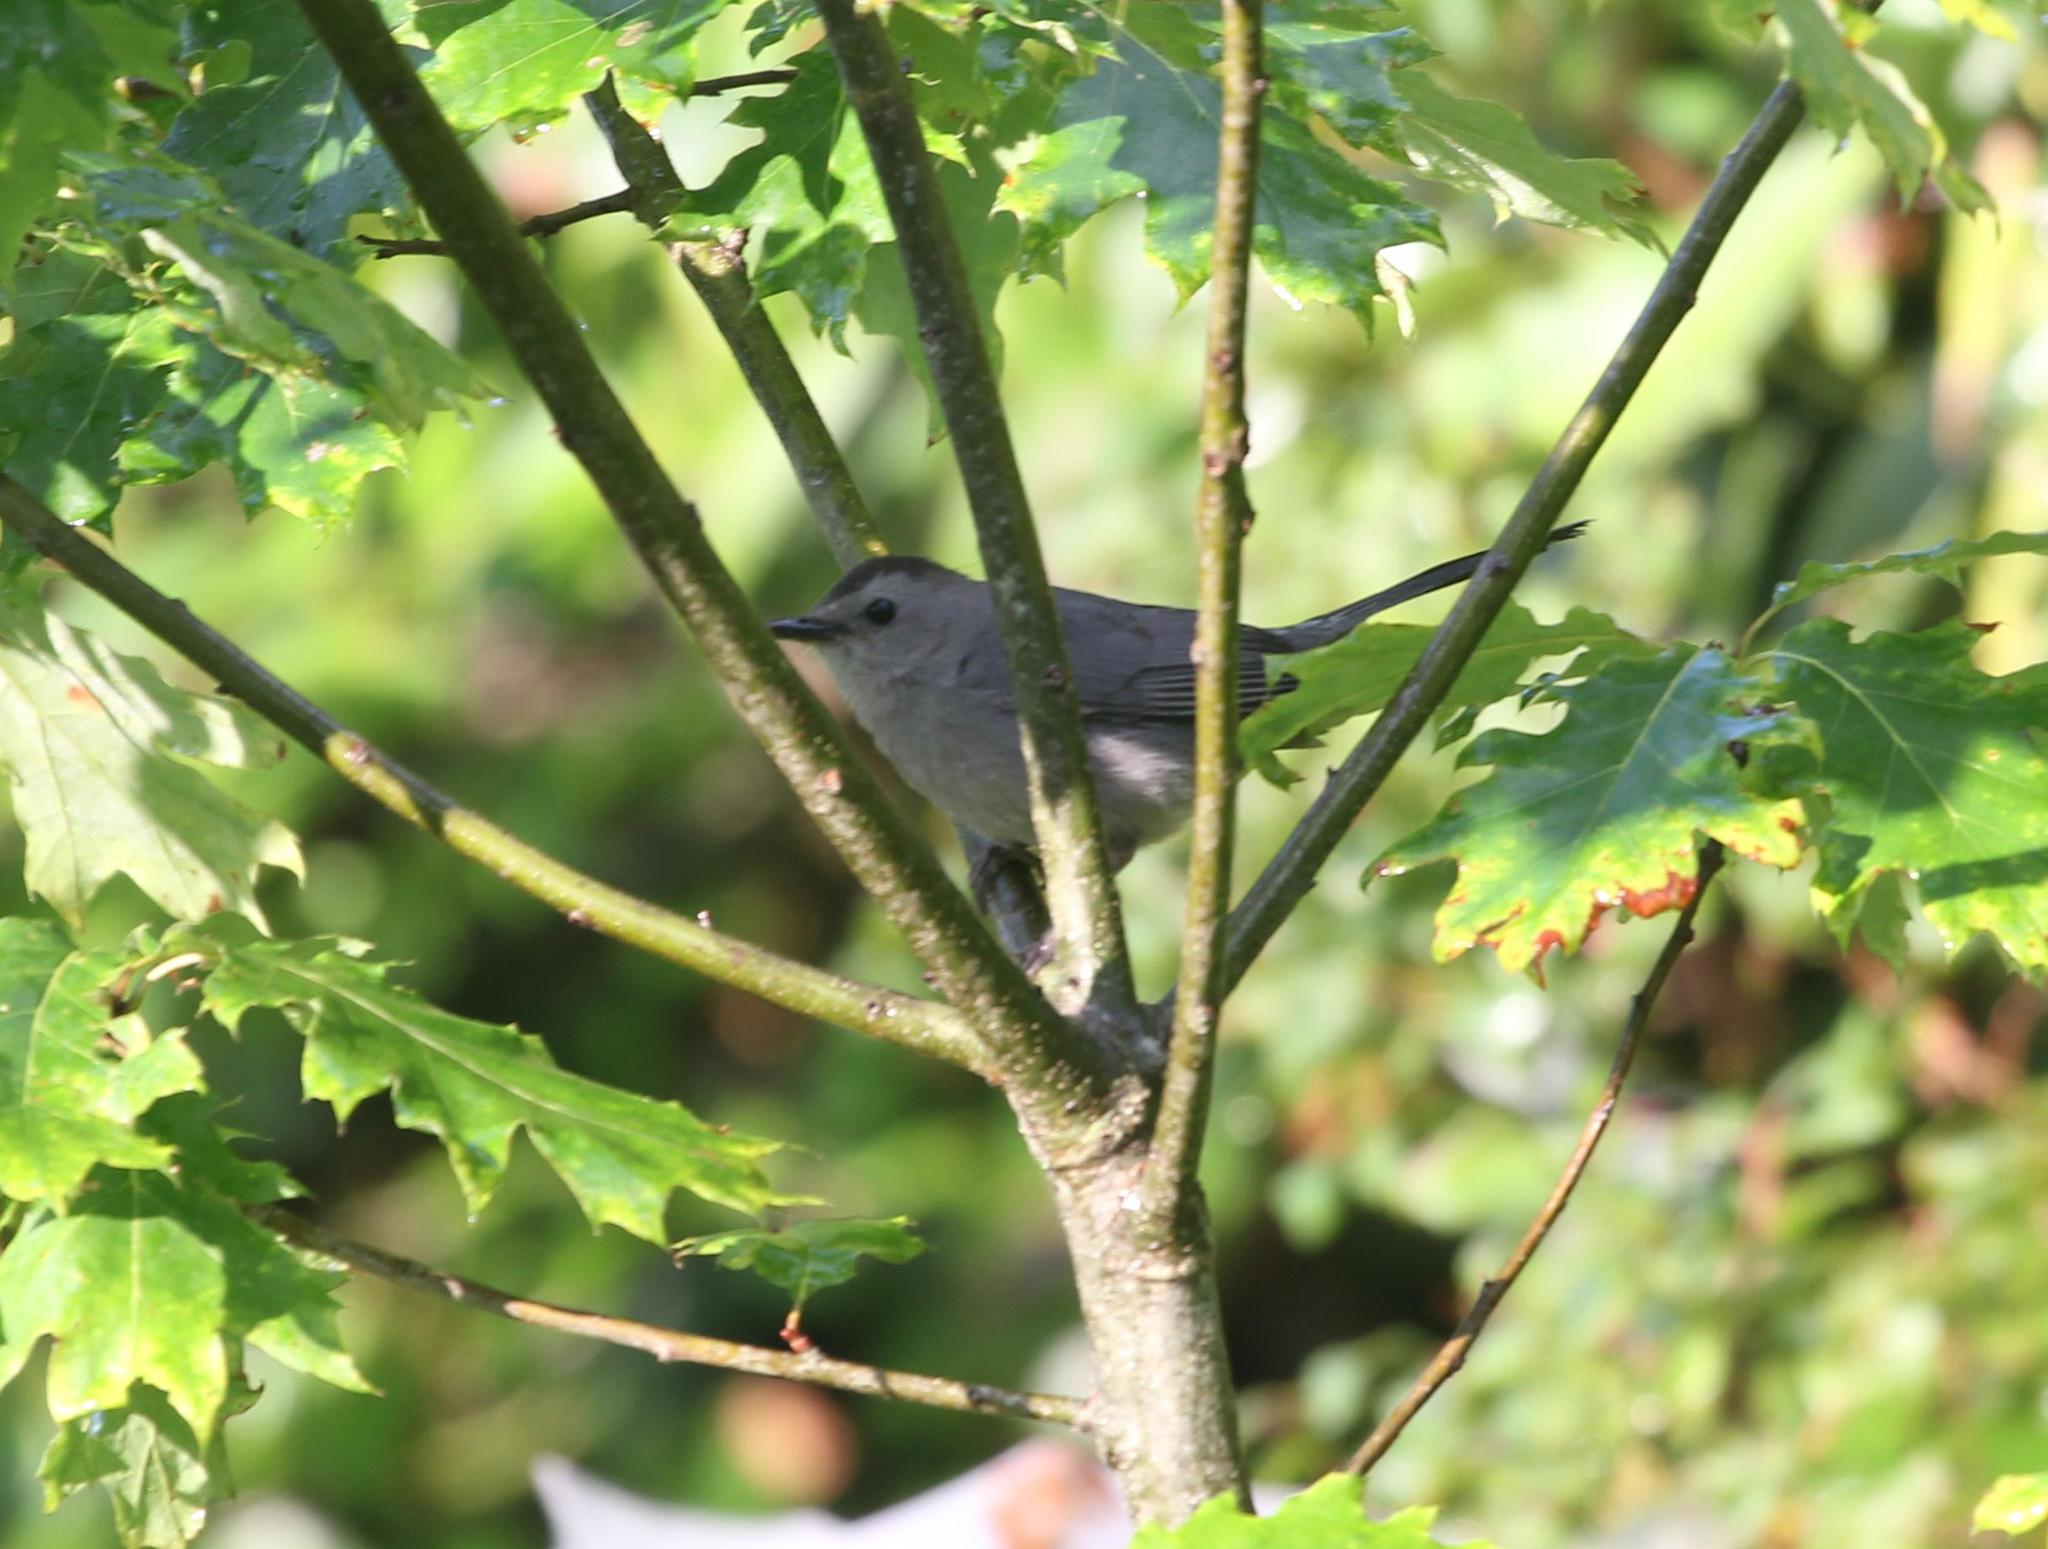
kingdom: Animalia
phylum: Chordata
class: Aves
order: Passeriformes
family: Mimidae
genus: Dumetella
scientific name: Dumetella carolinensis
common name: Gray catbird
